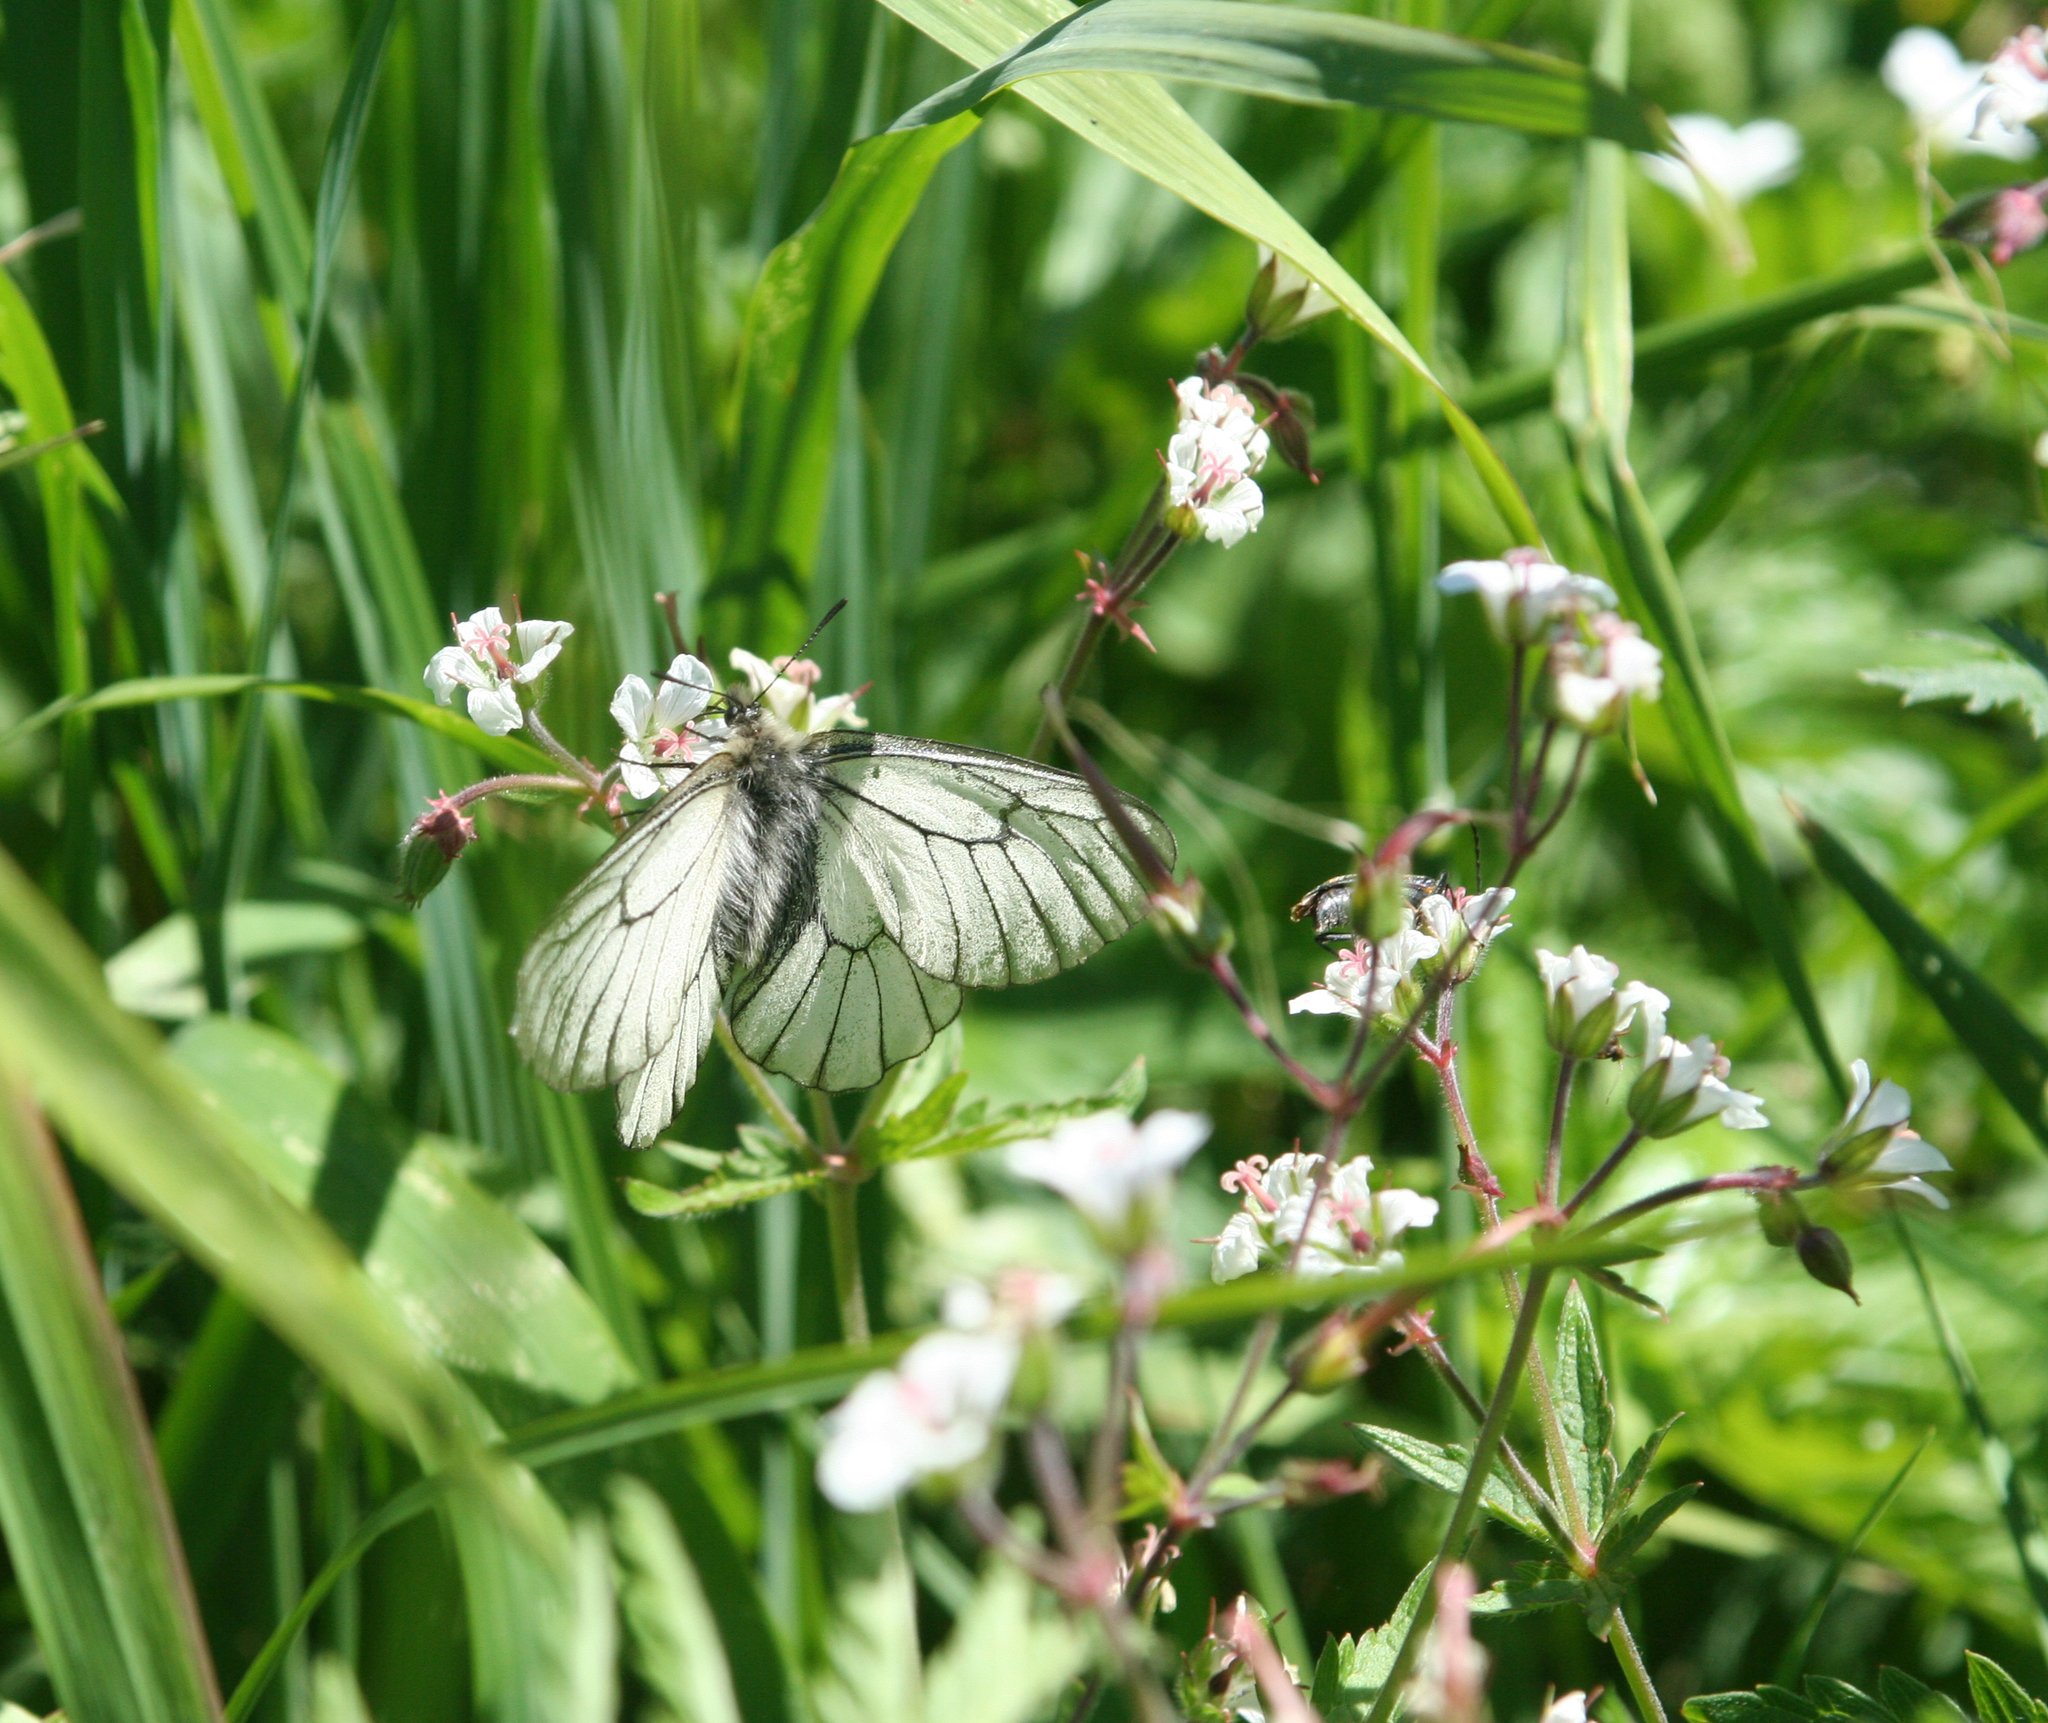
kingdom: Animalia
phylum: Arthropoda
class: Insecta
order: Lepidoptera
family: Papilionidae
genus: Parnassius
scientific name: Parnassius stubbendorfii
